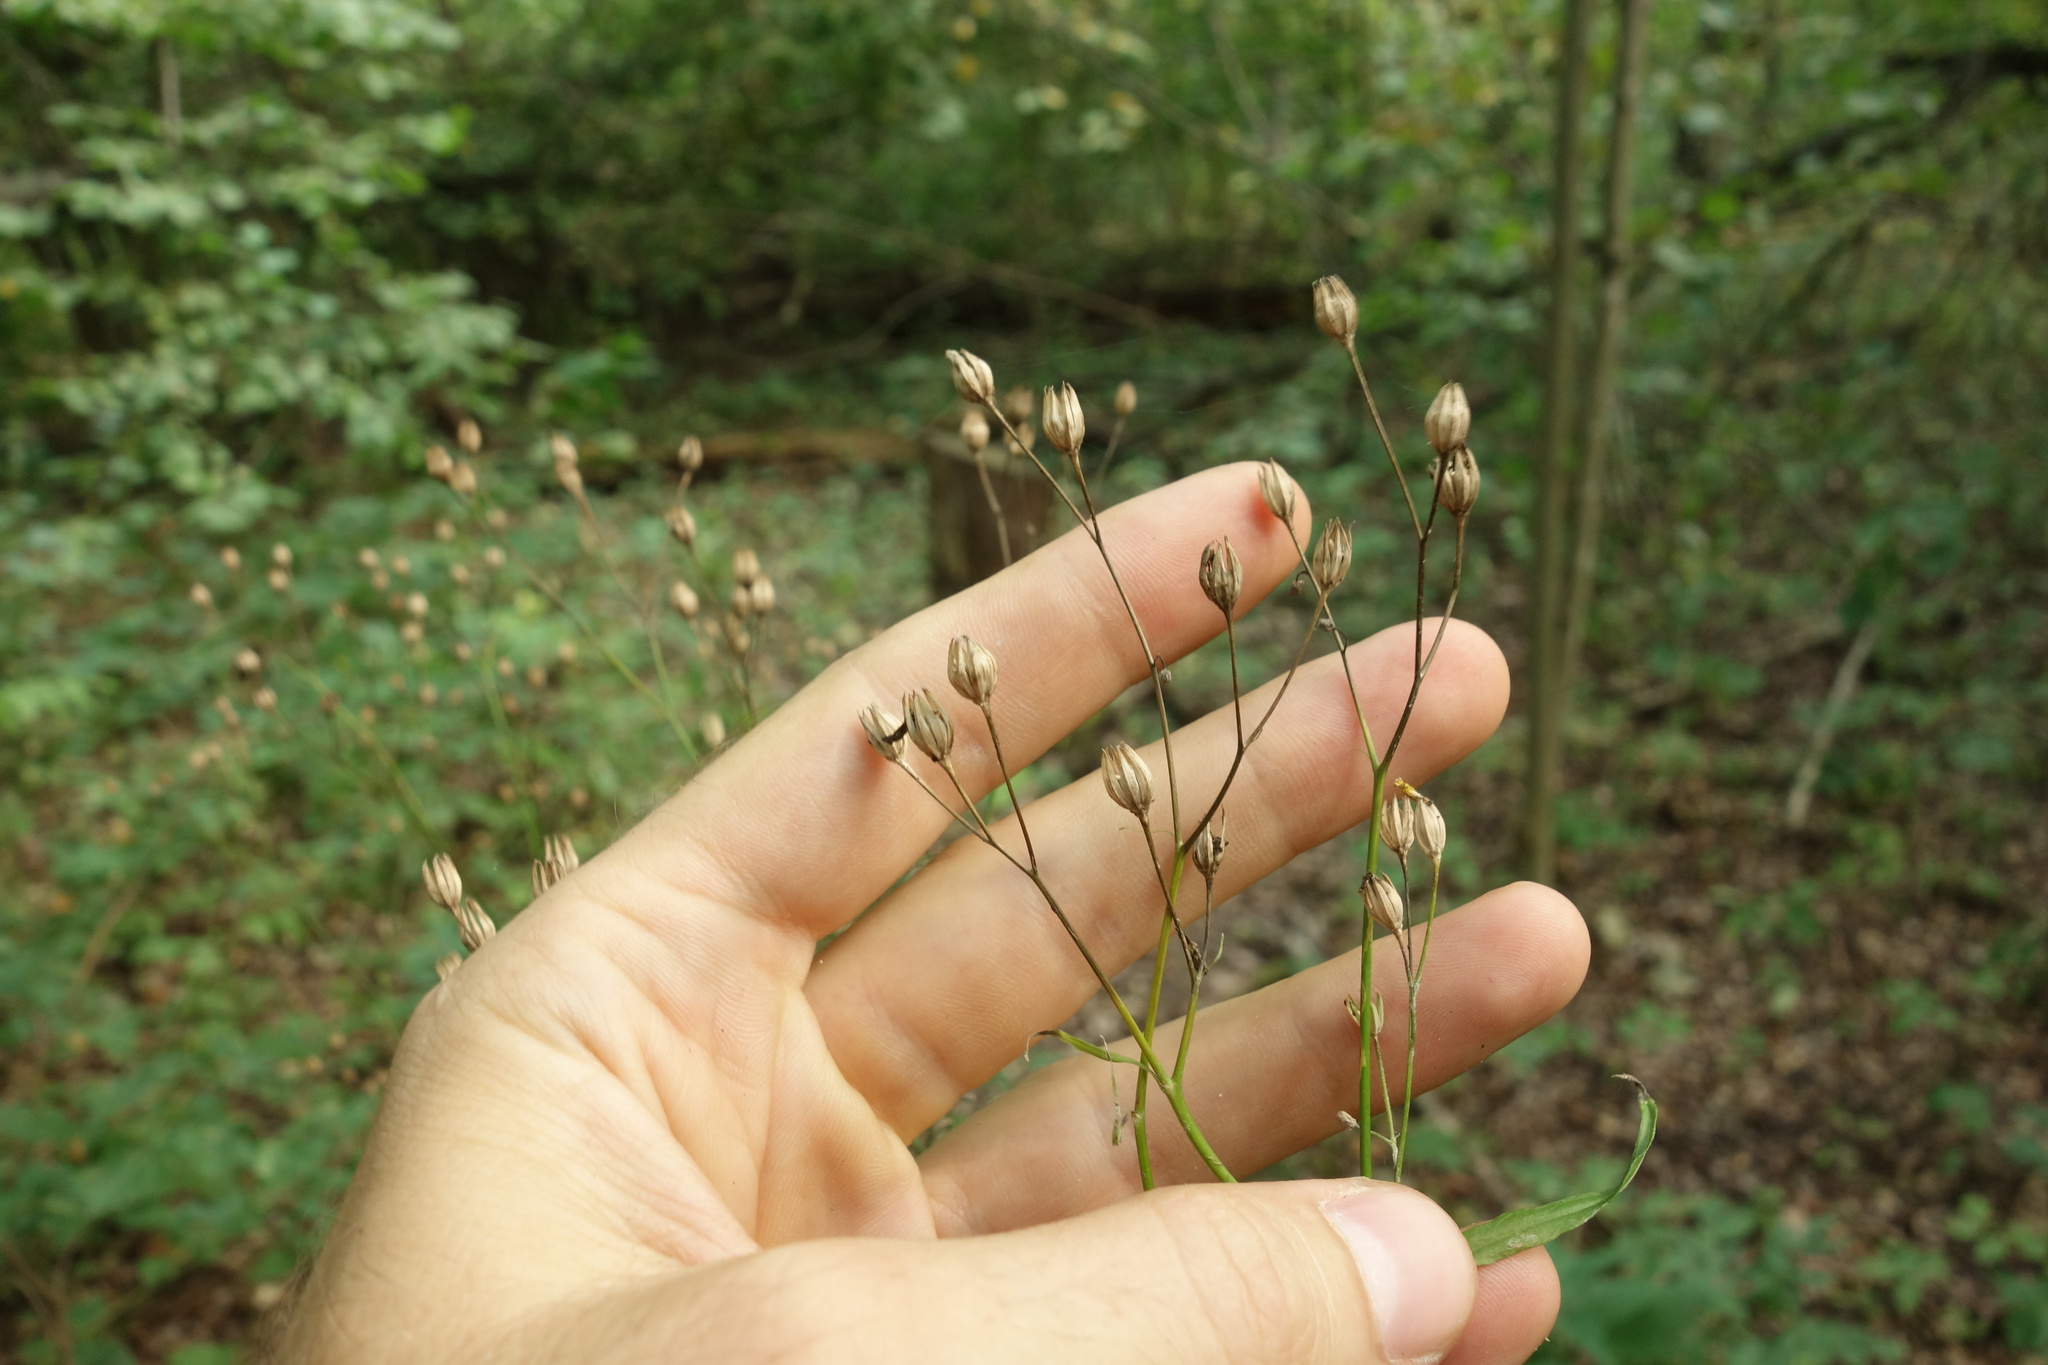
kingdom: Plantae
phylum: Tracheophyta
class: Magnoliopsida
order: Asterales
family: Asteraceae
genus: Lapsana
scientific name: Lapsana communis
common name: Nipplewort
